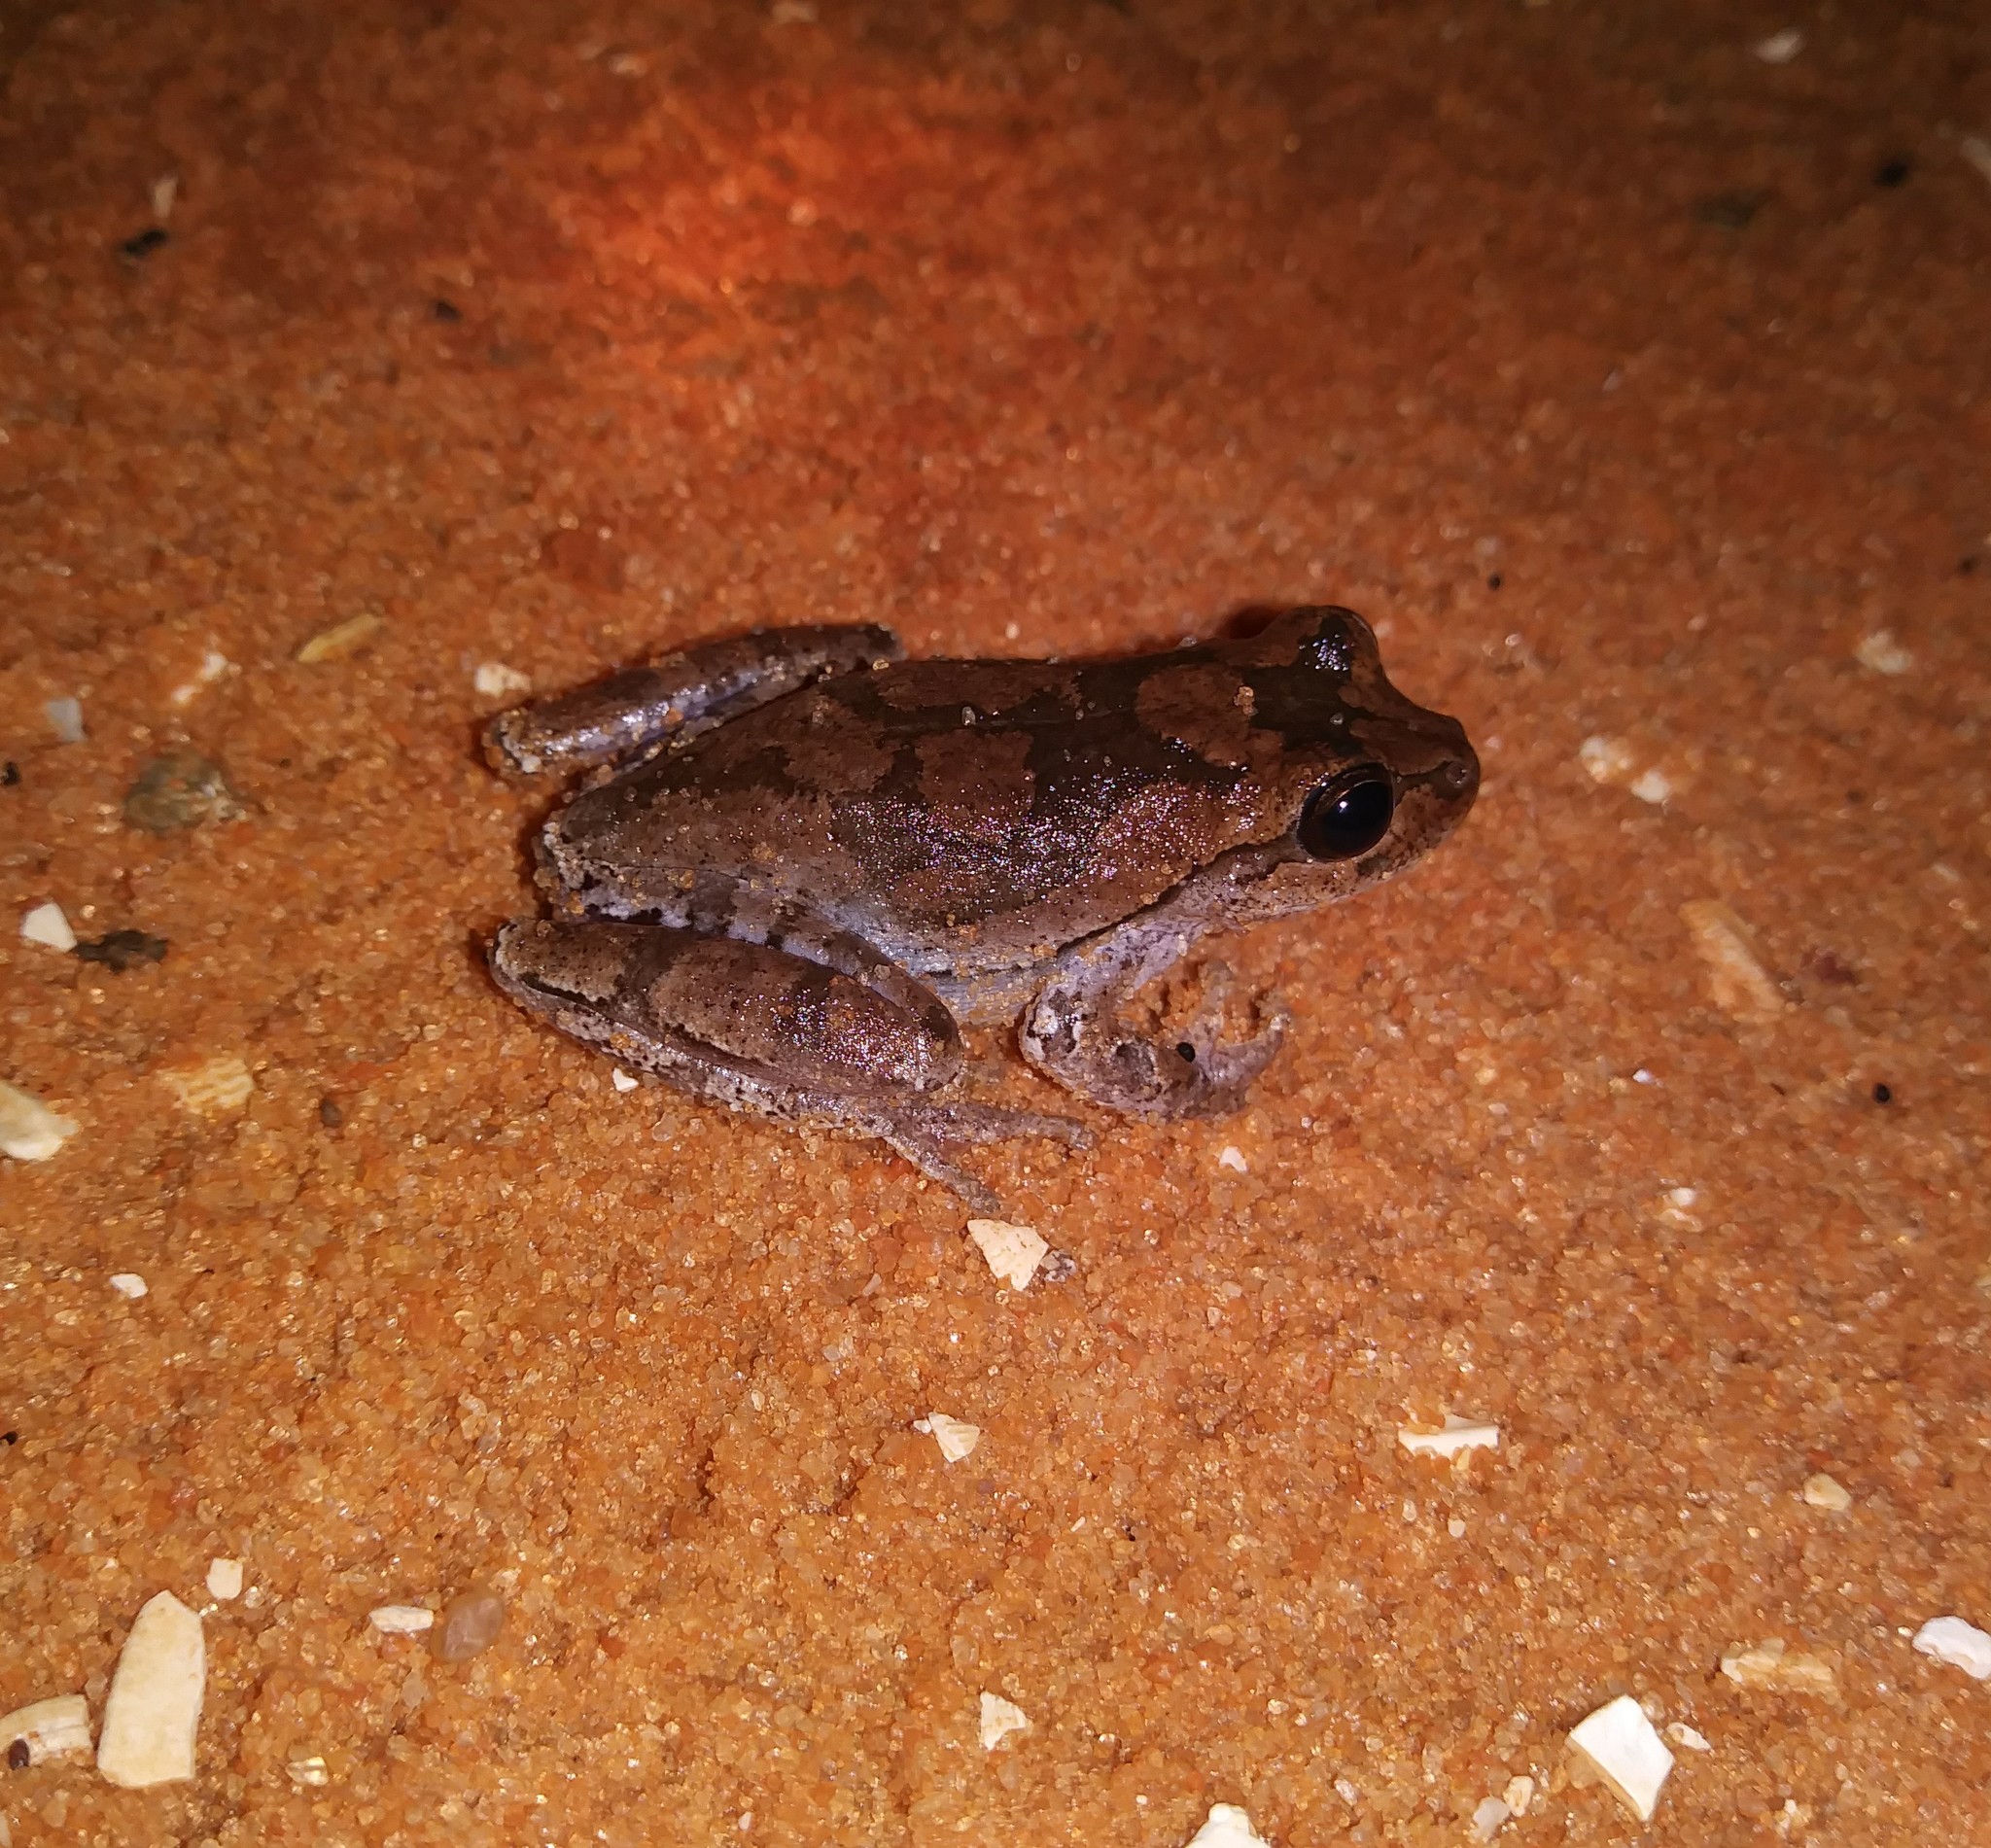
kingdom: Animalia
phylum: Chordata
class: Amphibia
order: Anura
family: Hylidae
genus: Hyla
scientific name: Hyla femoralis
